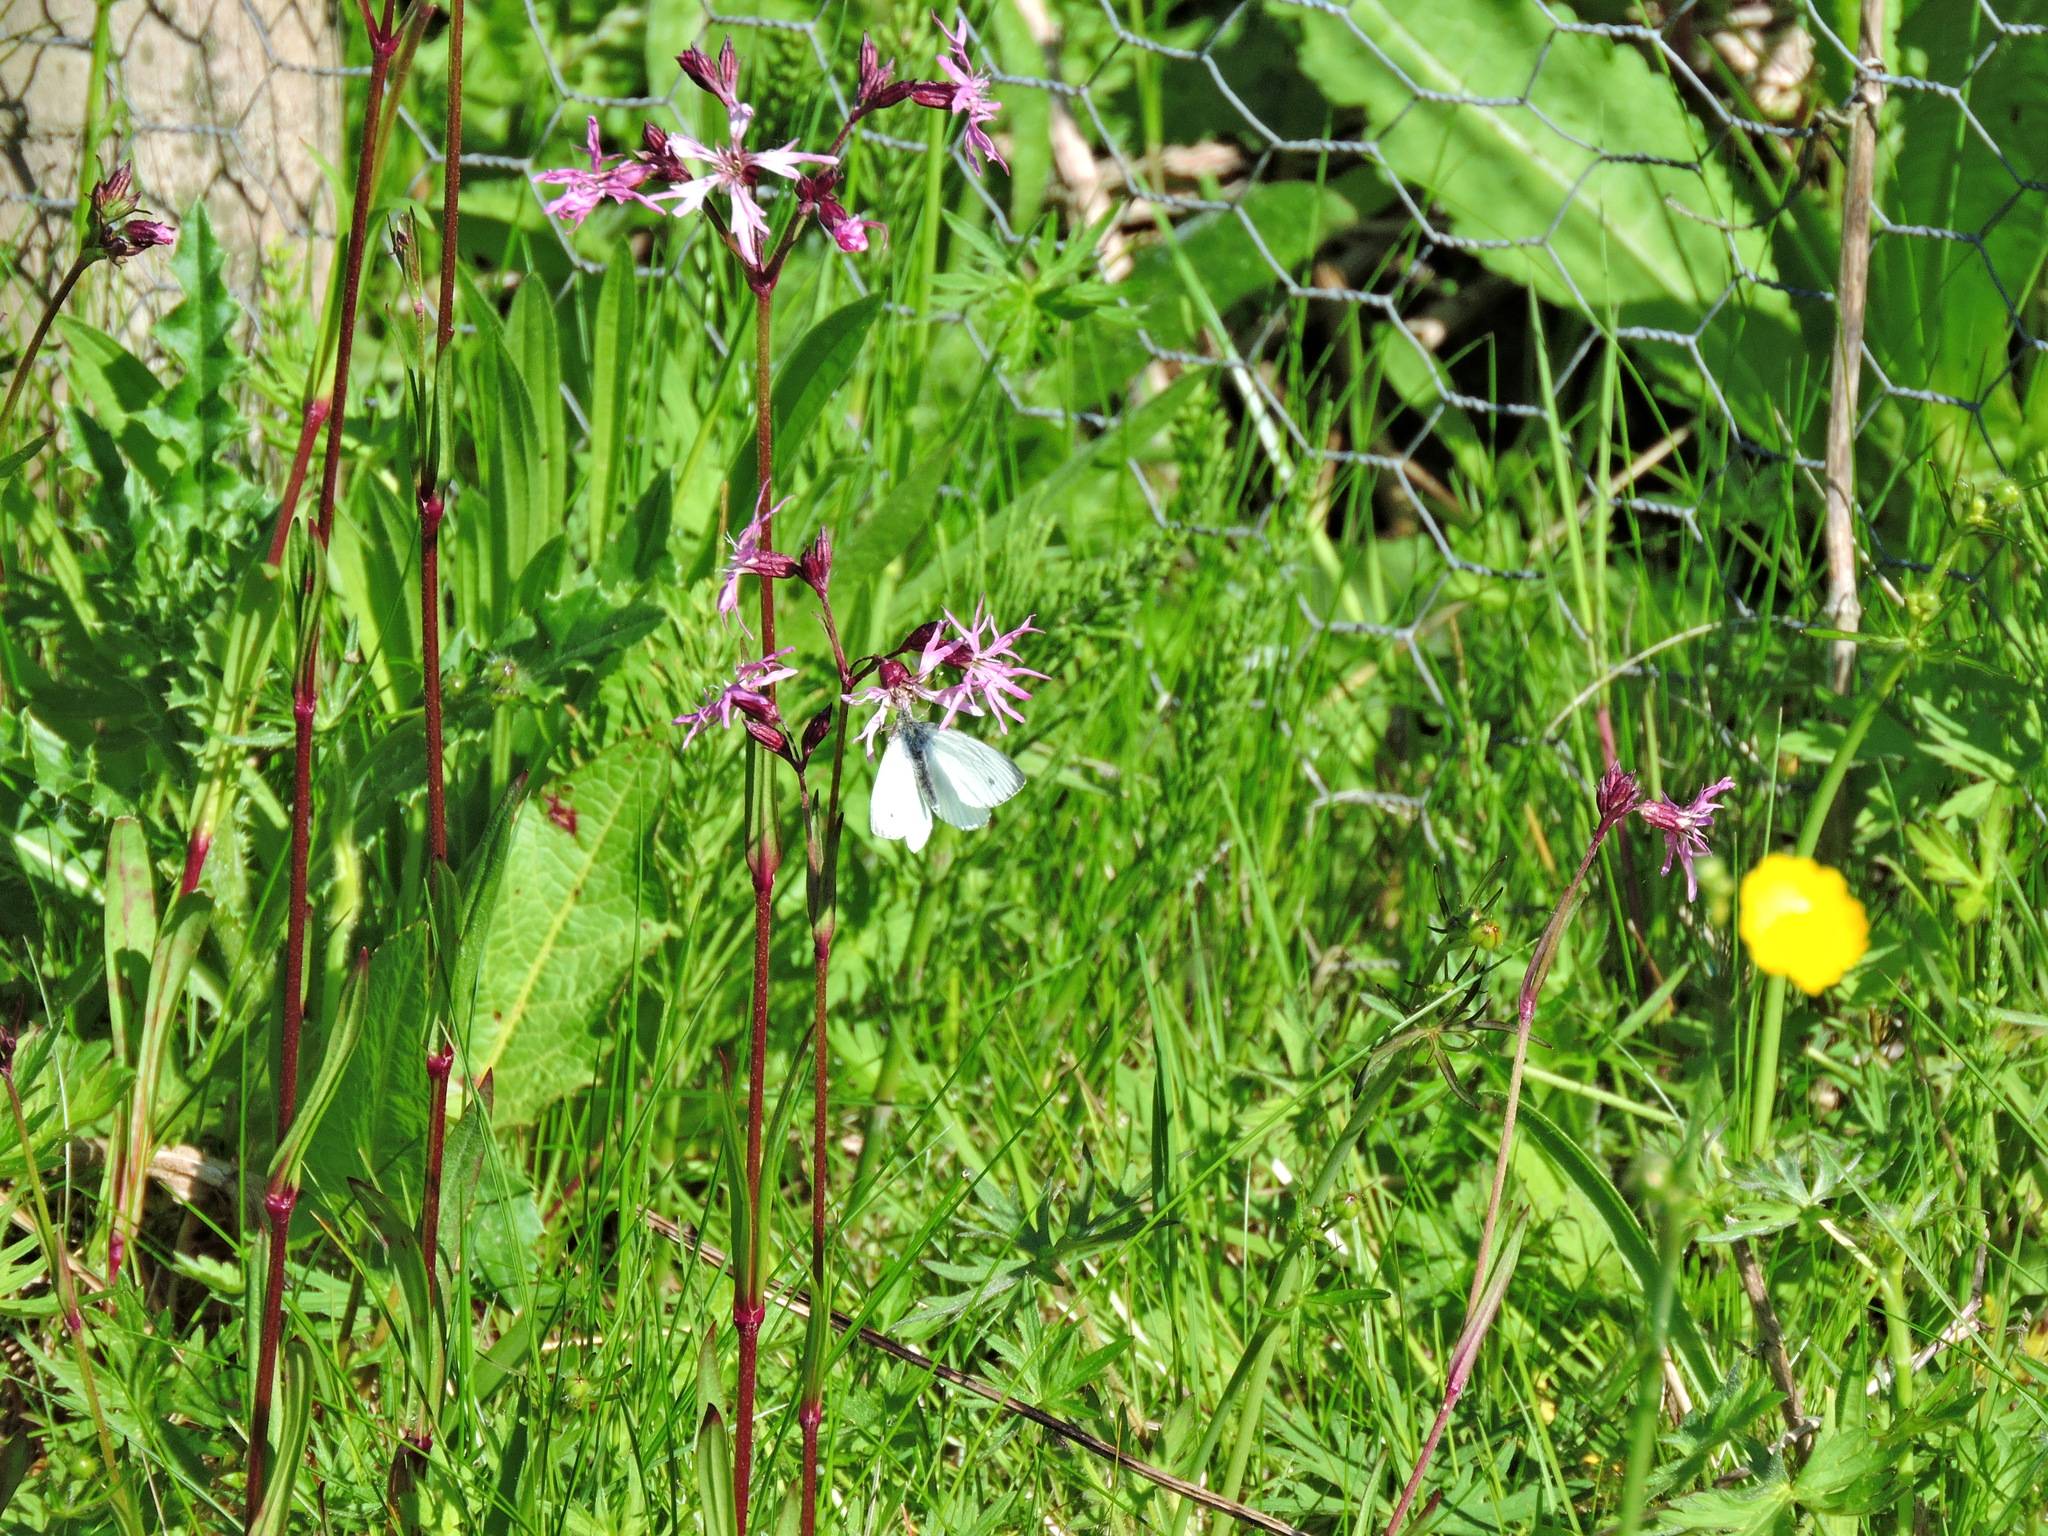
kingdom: Animalia
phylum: Arthropoda
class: Insecta
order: Lepidoptera
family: Pieridae
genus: Pieris
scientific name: Pieris napi
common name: Green-veined white
